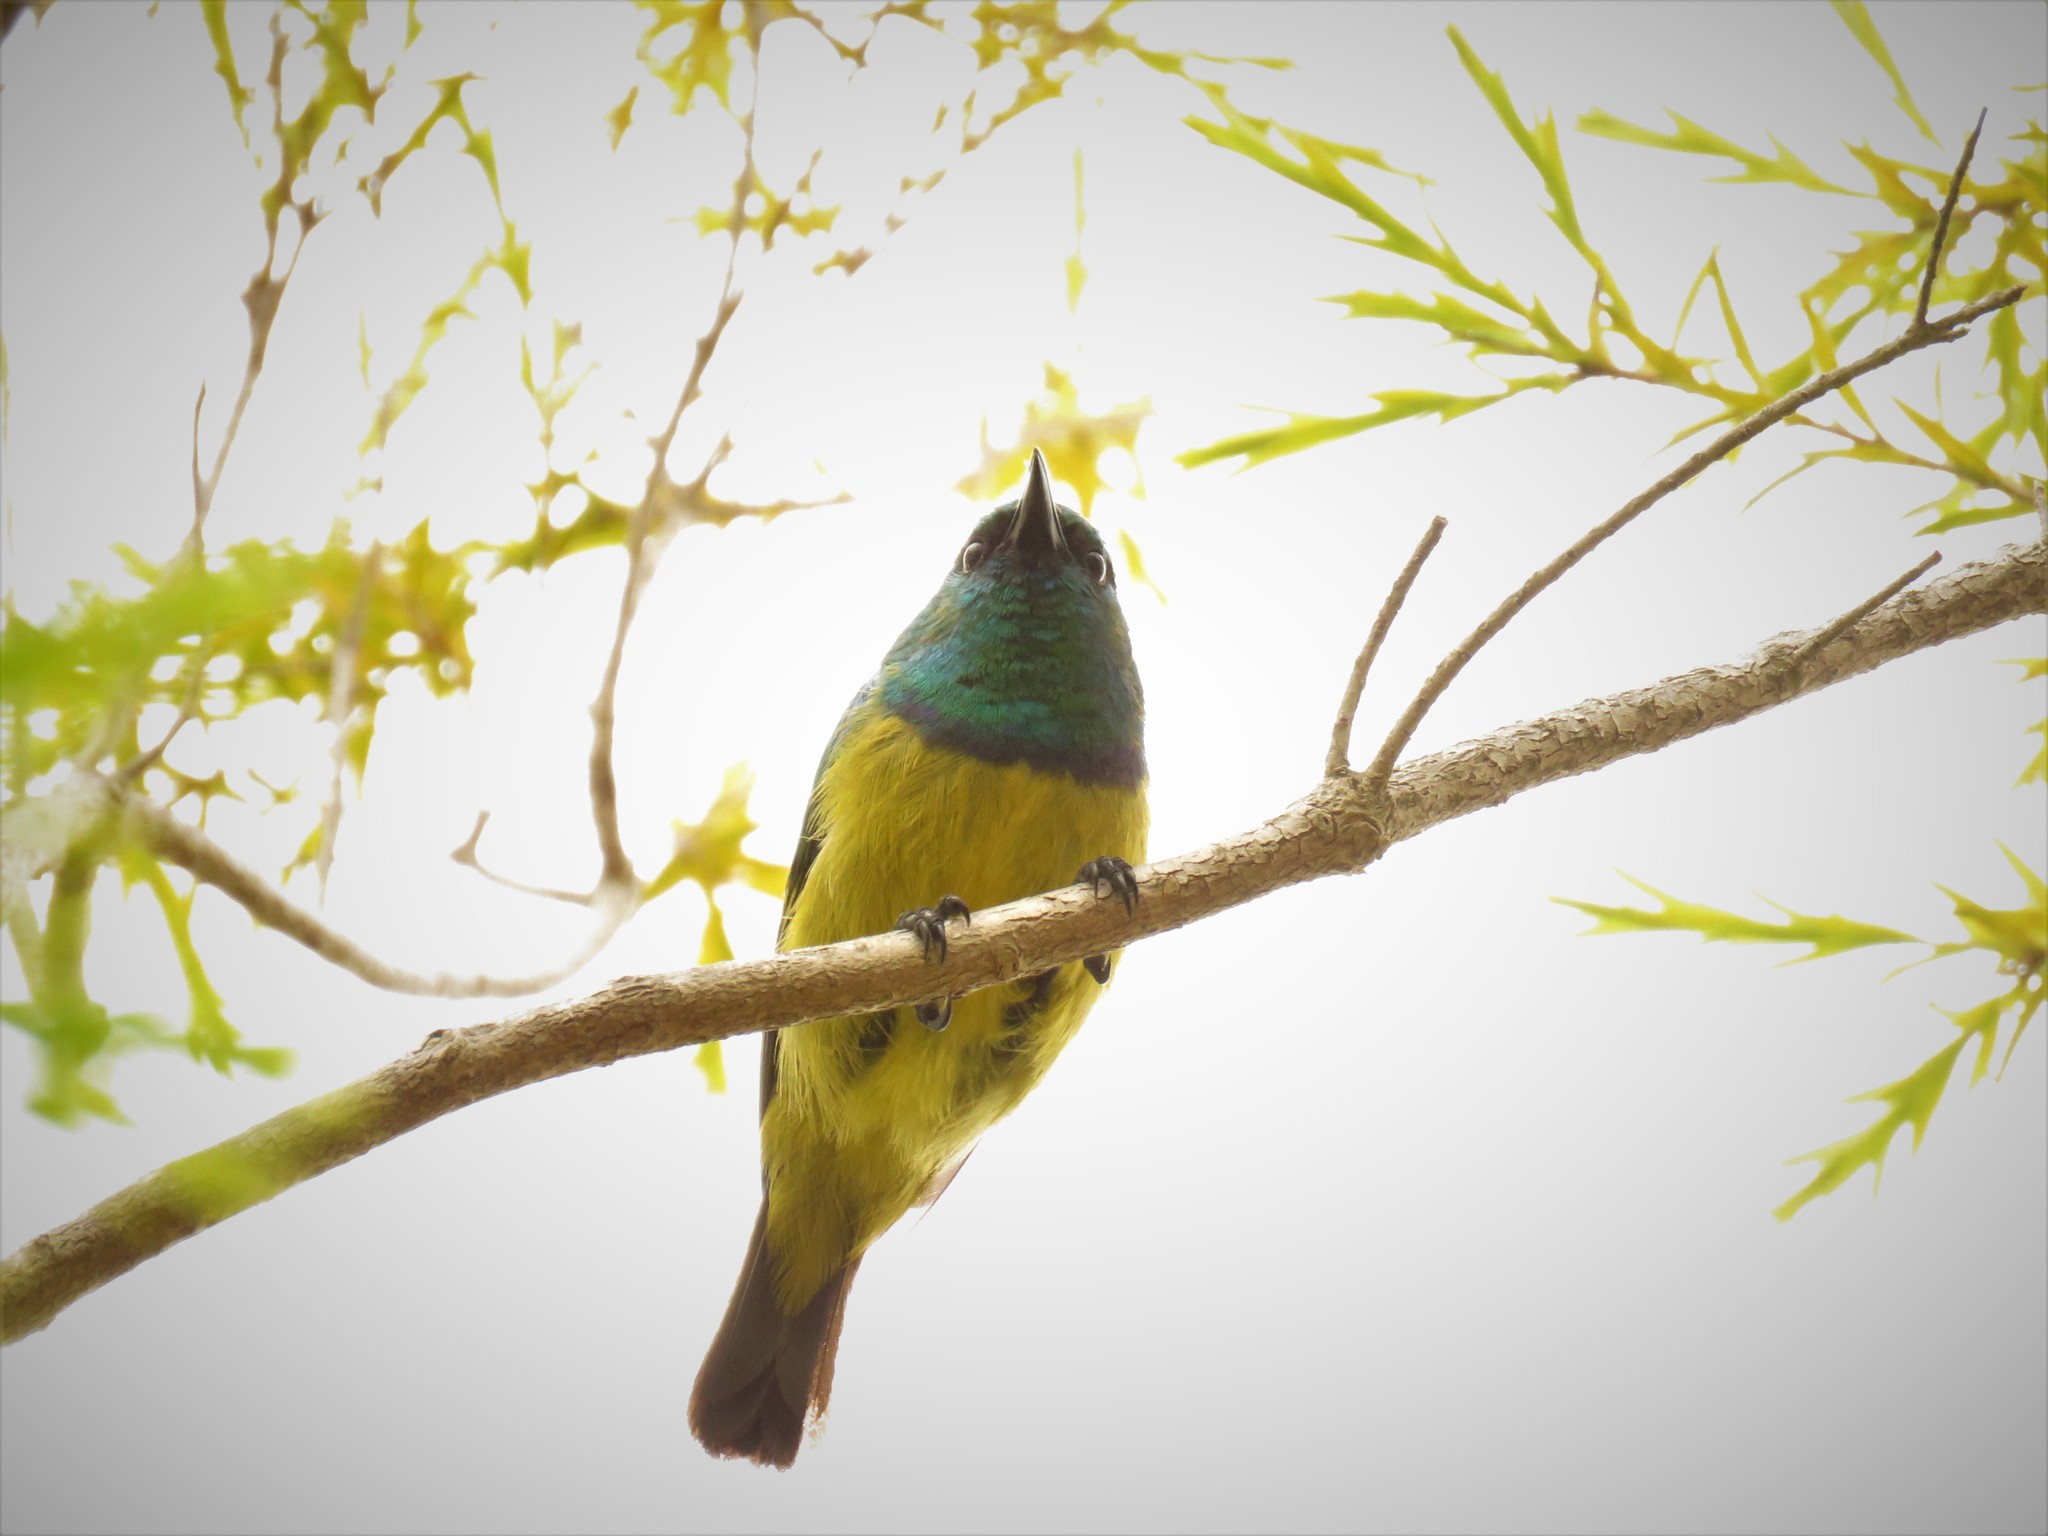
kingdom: Animalia
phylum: Chordata
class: Aves
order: Passeriformes
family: Nectariniidae
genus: Hedydipna
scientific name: Hedydipna collaris
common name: Collared sunbird
